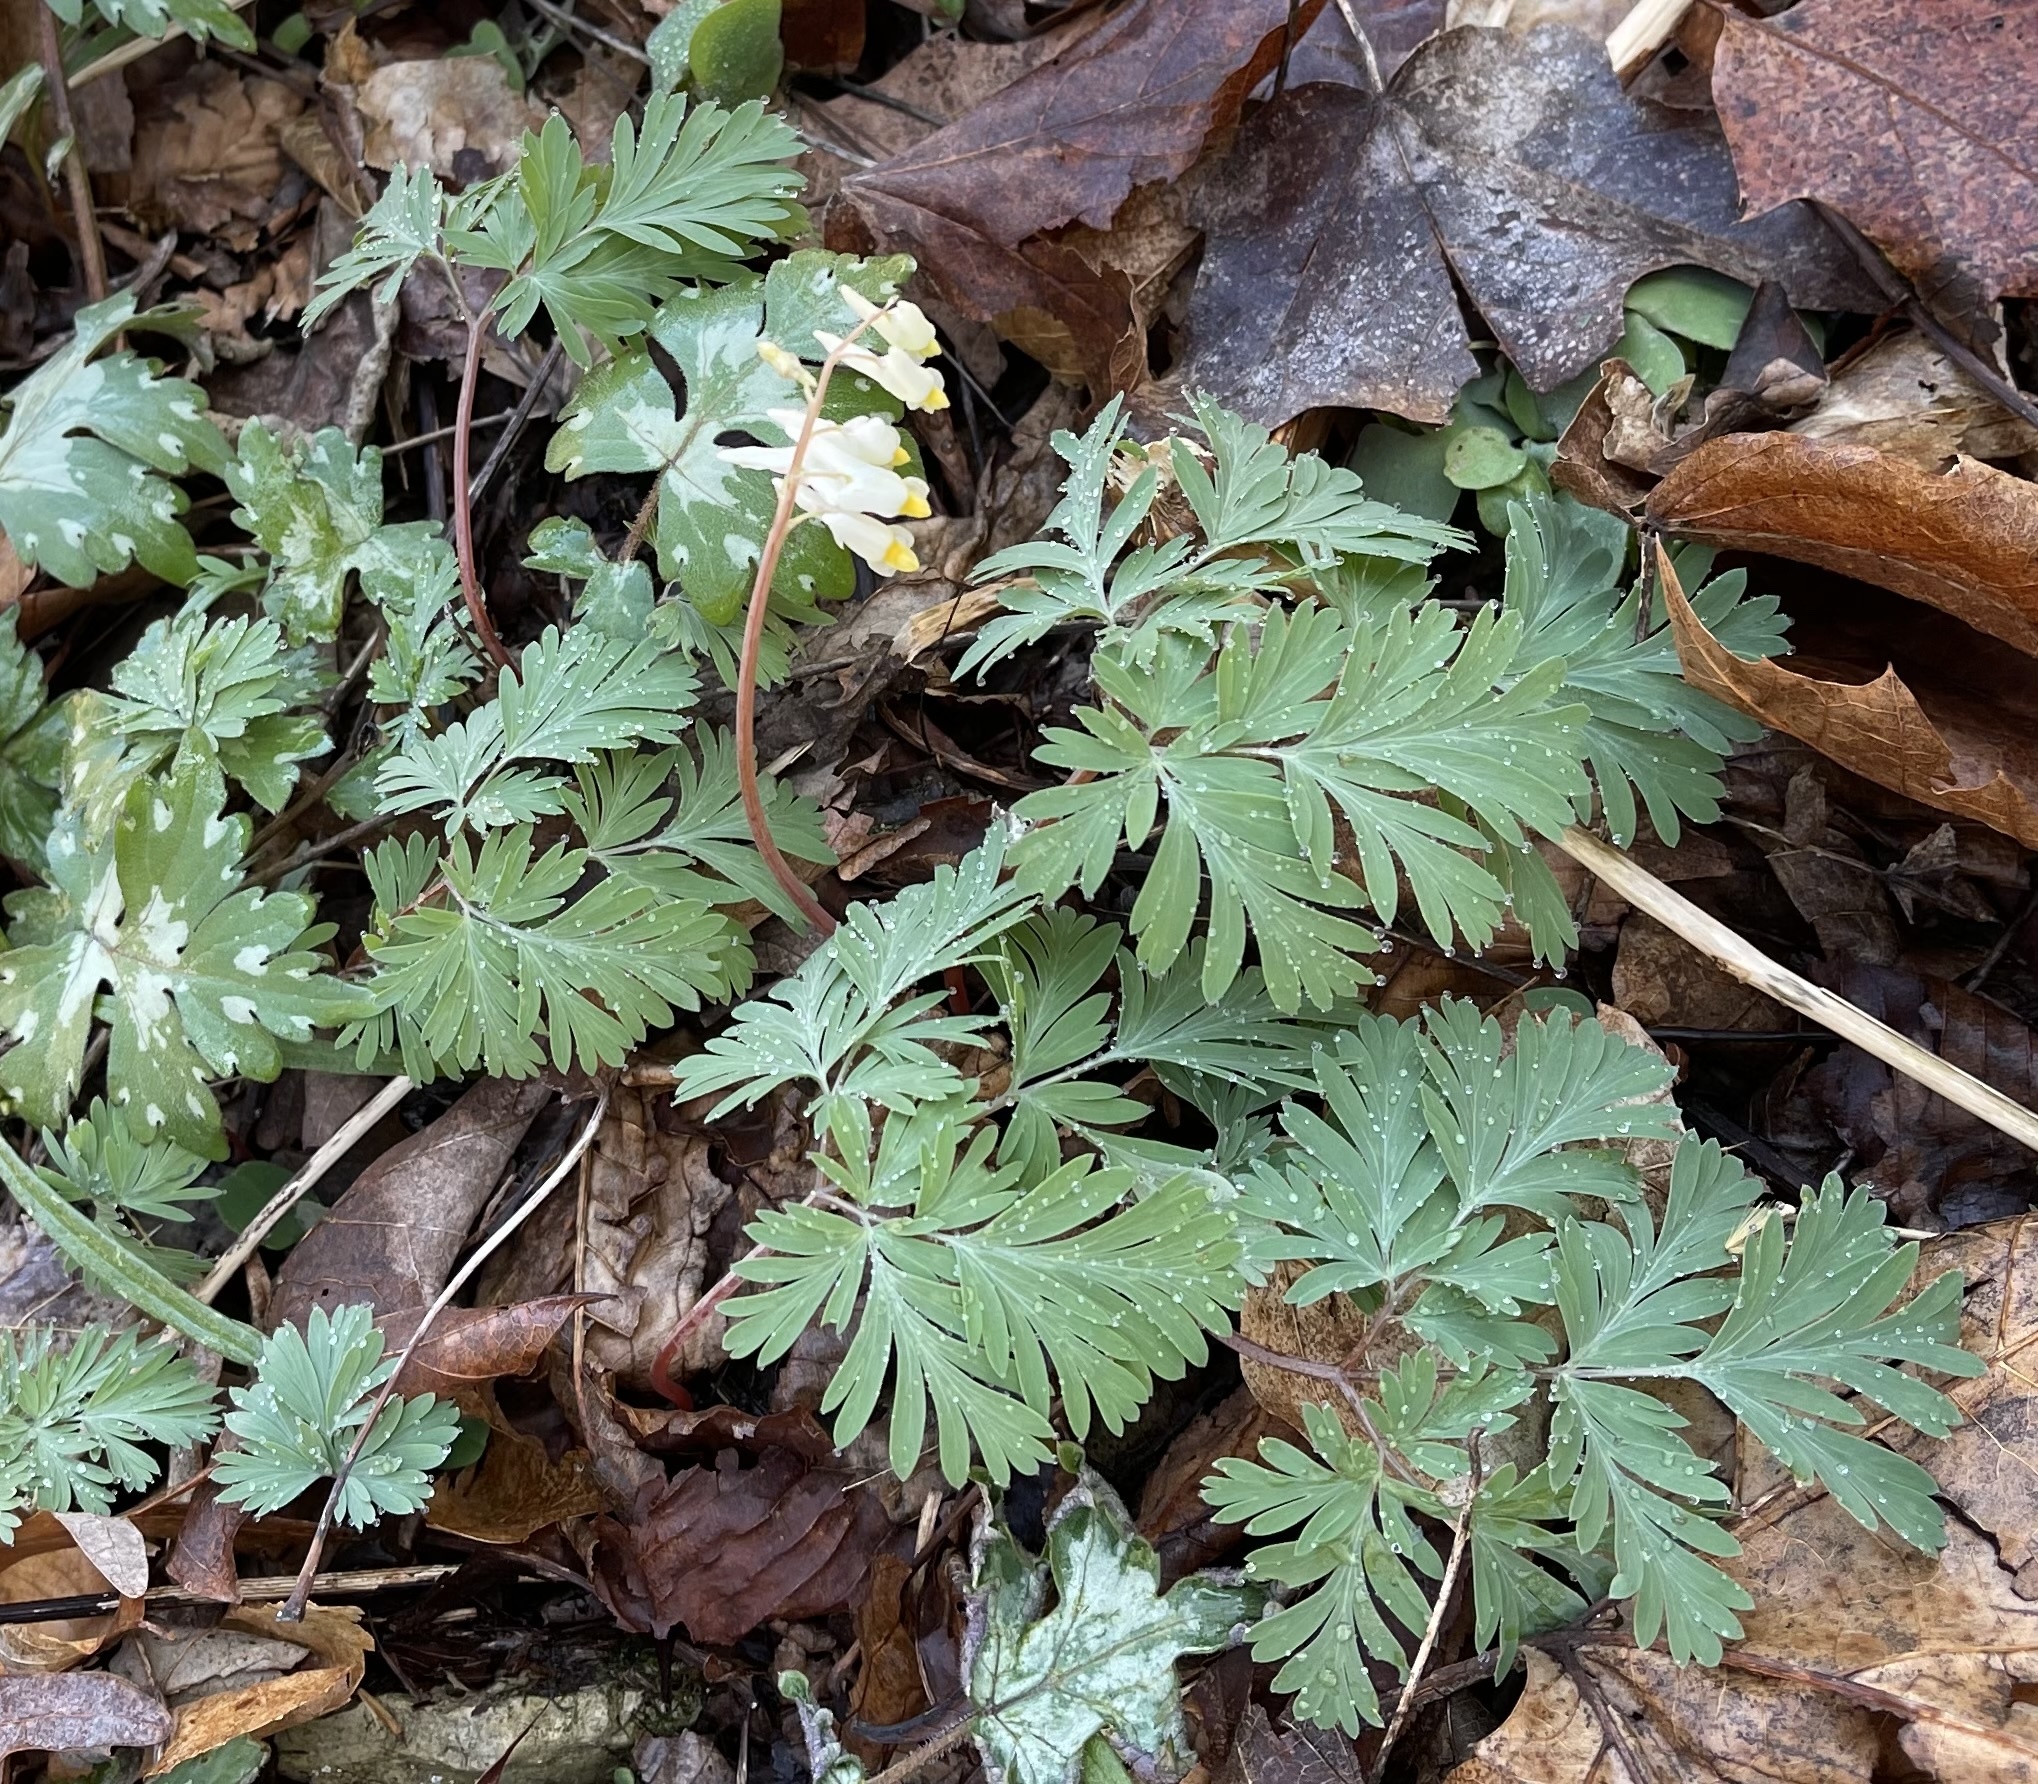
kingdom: Plantae
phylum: Tracheophyta
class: Magnoliopsida
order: Ranunculales
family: Papaveraceae
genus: Dicentra
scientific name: Dicentra cucullaria
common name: Dutchman's breeches
